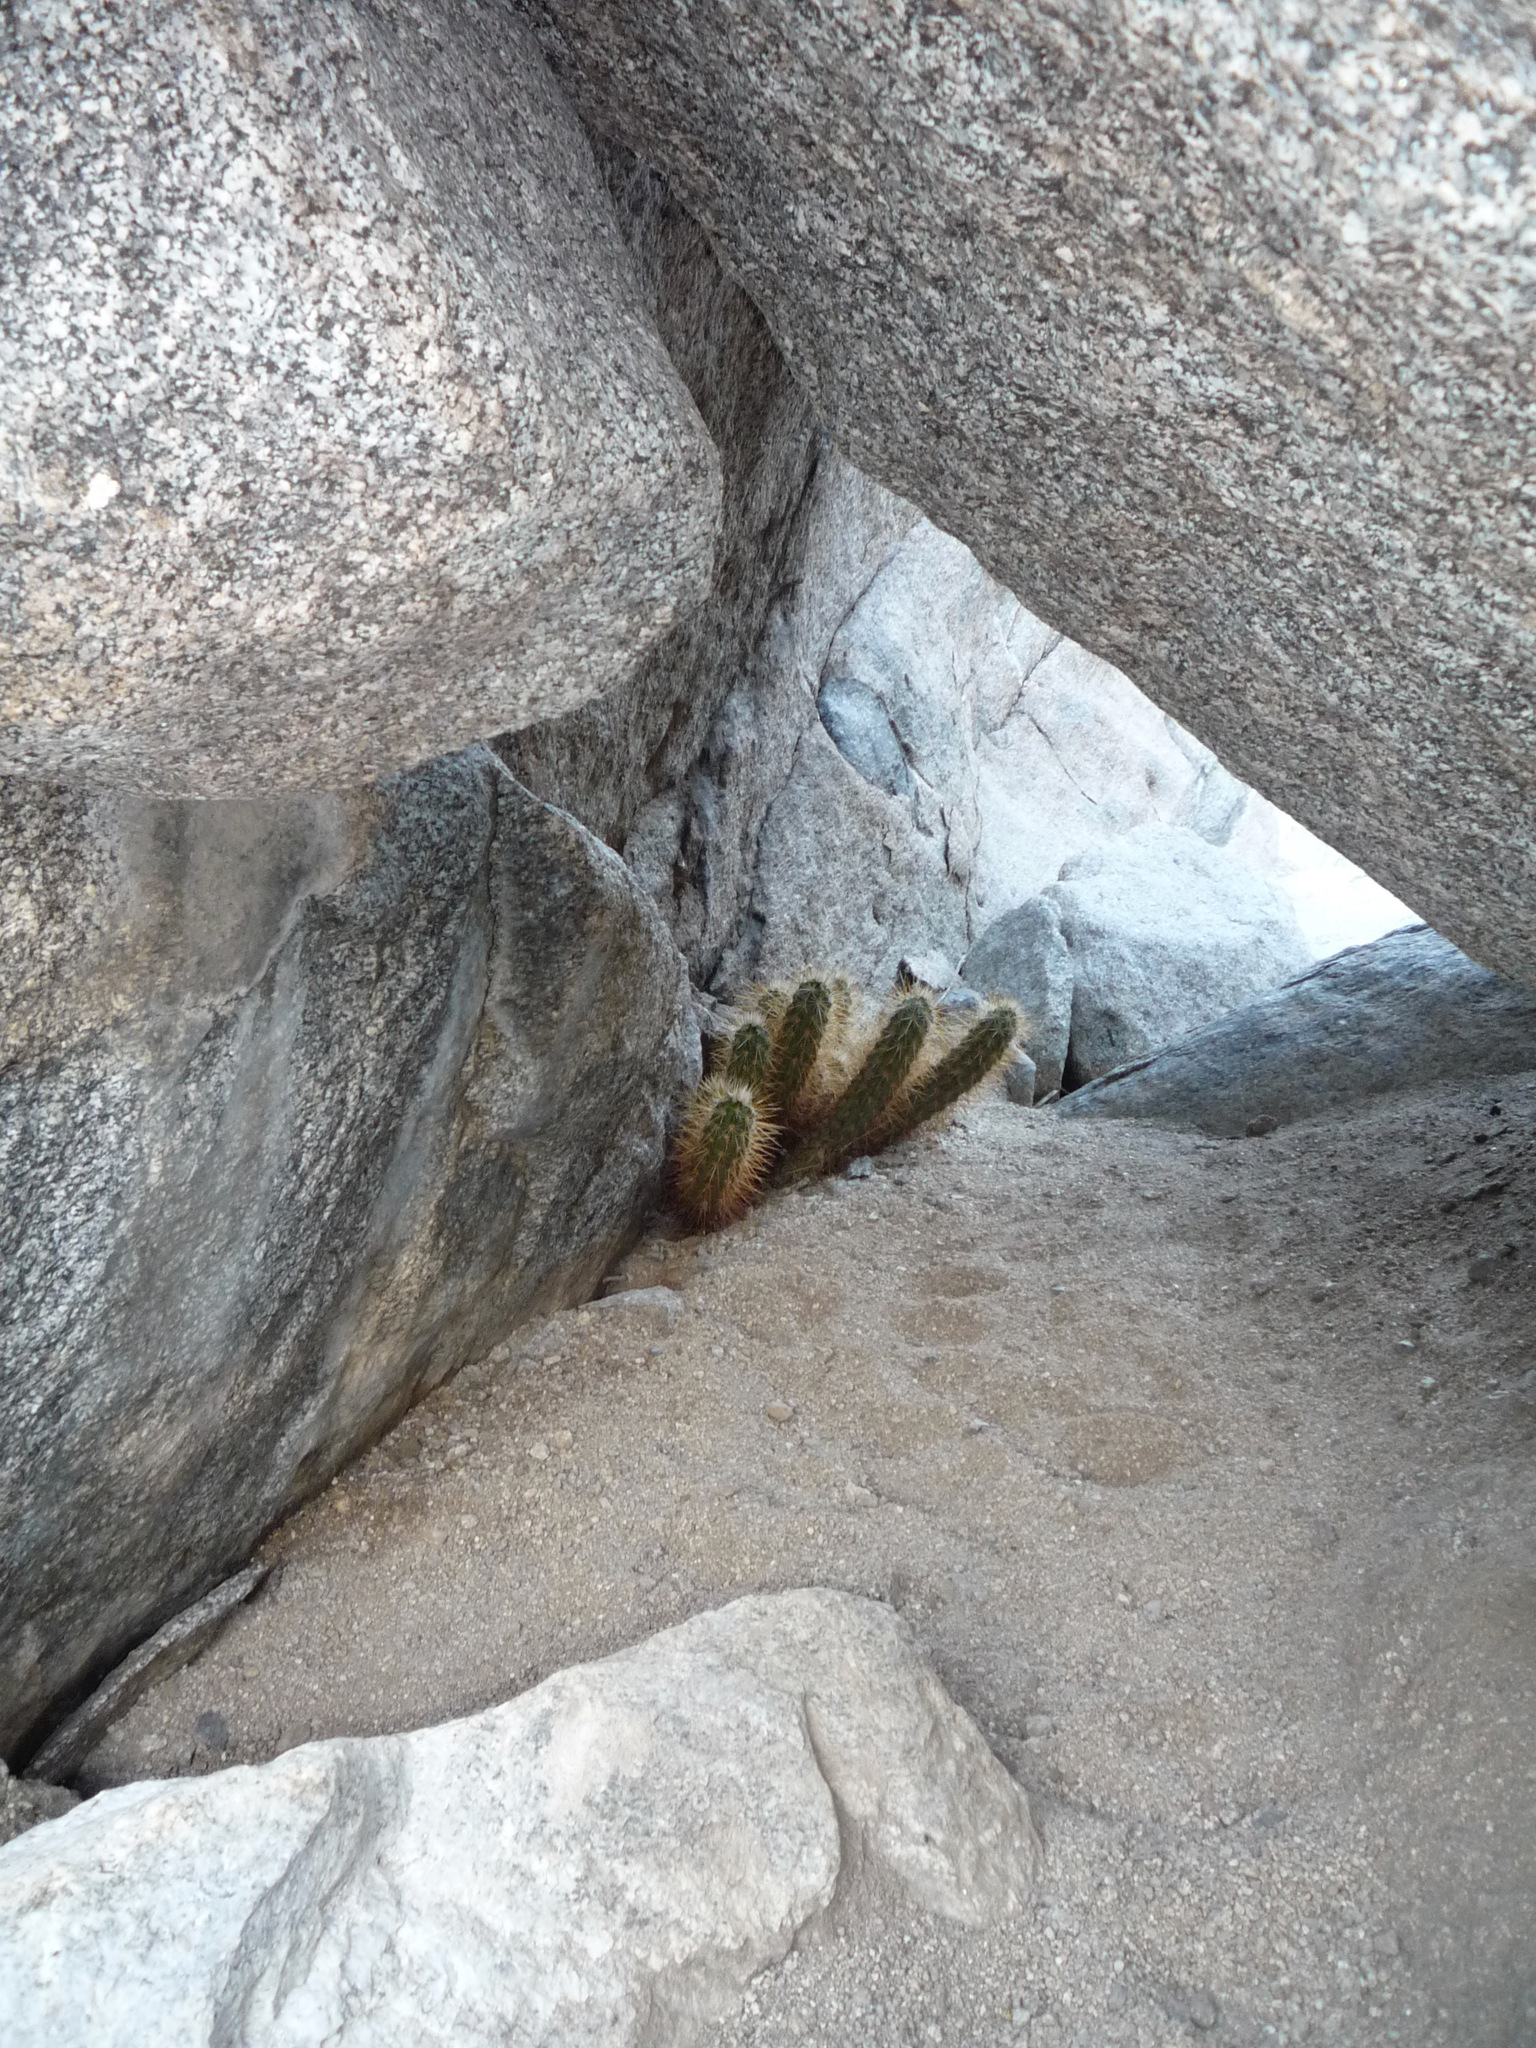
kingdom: Plantae
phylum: Tracheophyta
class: Magnoliopsida
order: Caryophyllales
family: Cactaceae
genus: Echinocereus
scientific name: Echinocereus engelmannii
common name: Engelmann's hedgehog cactus
